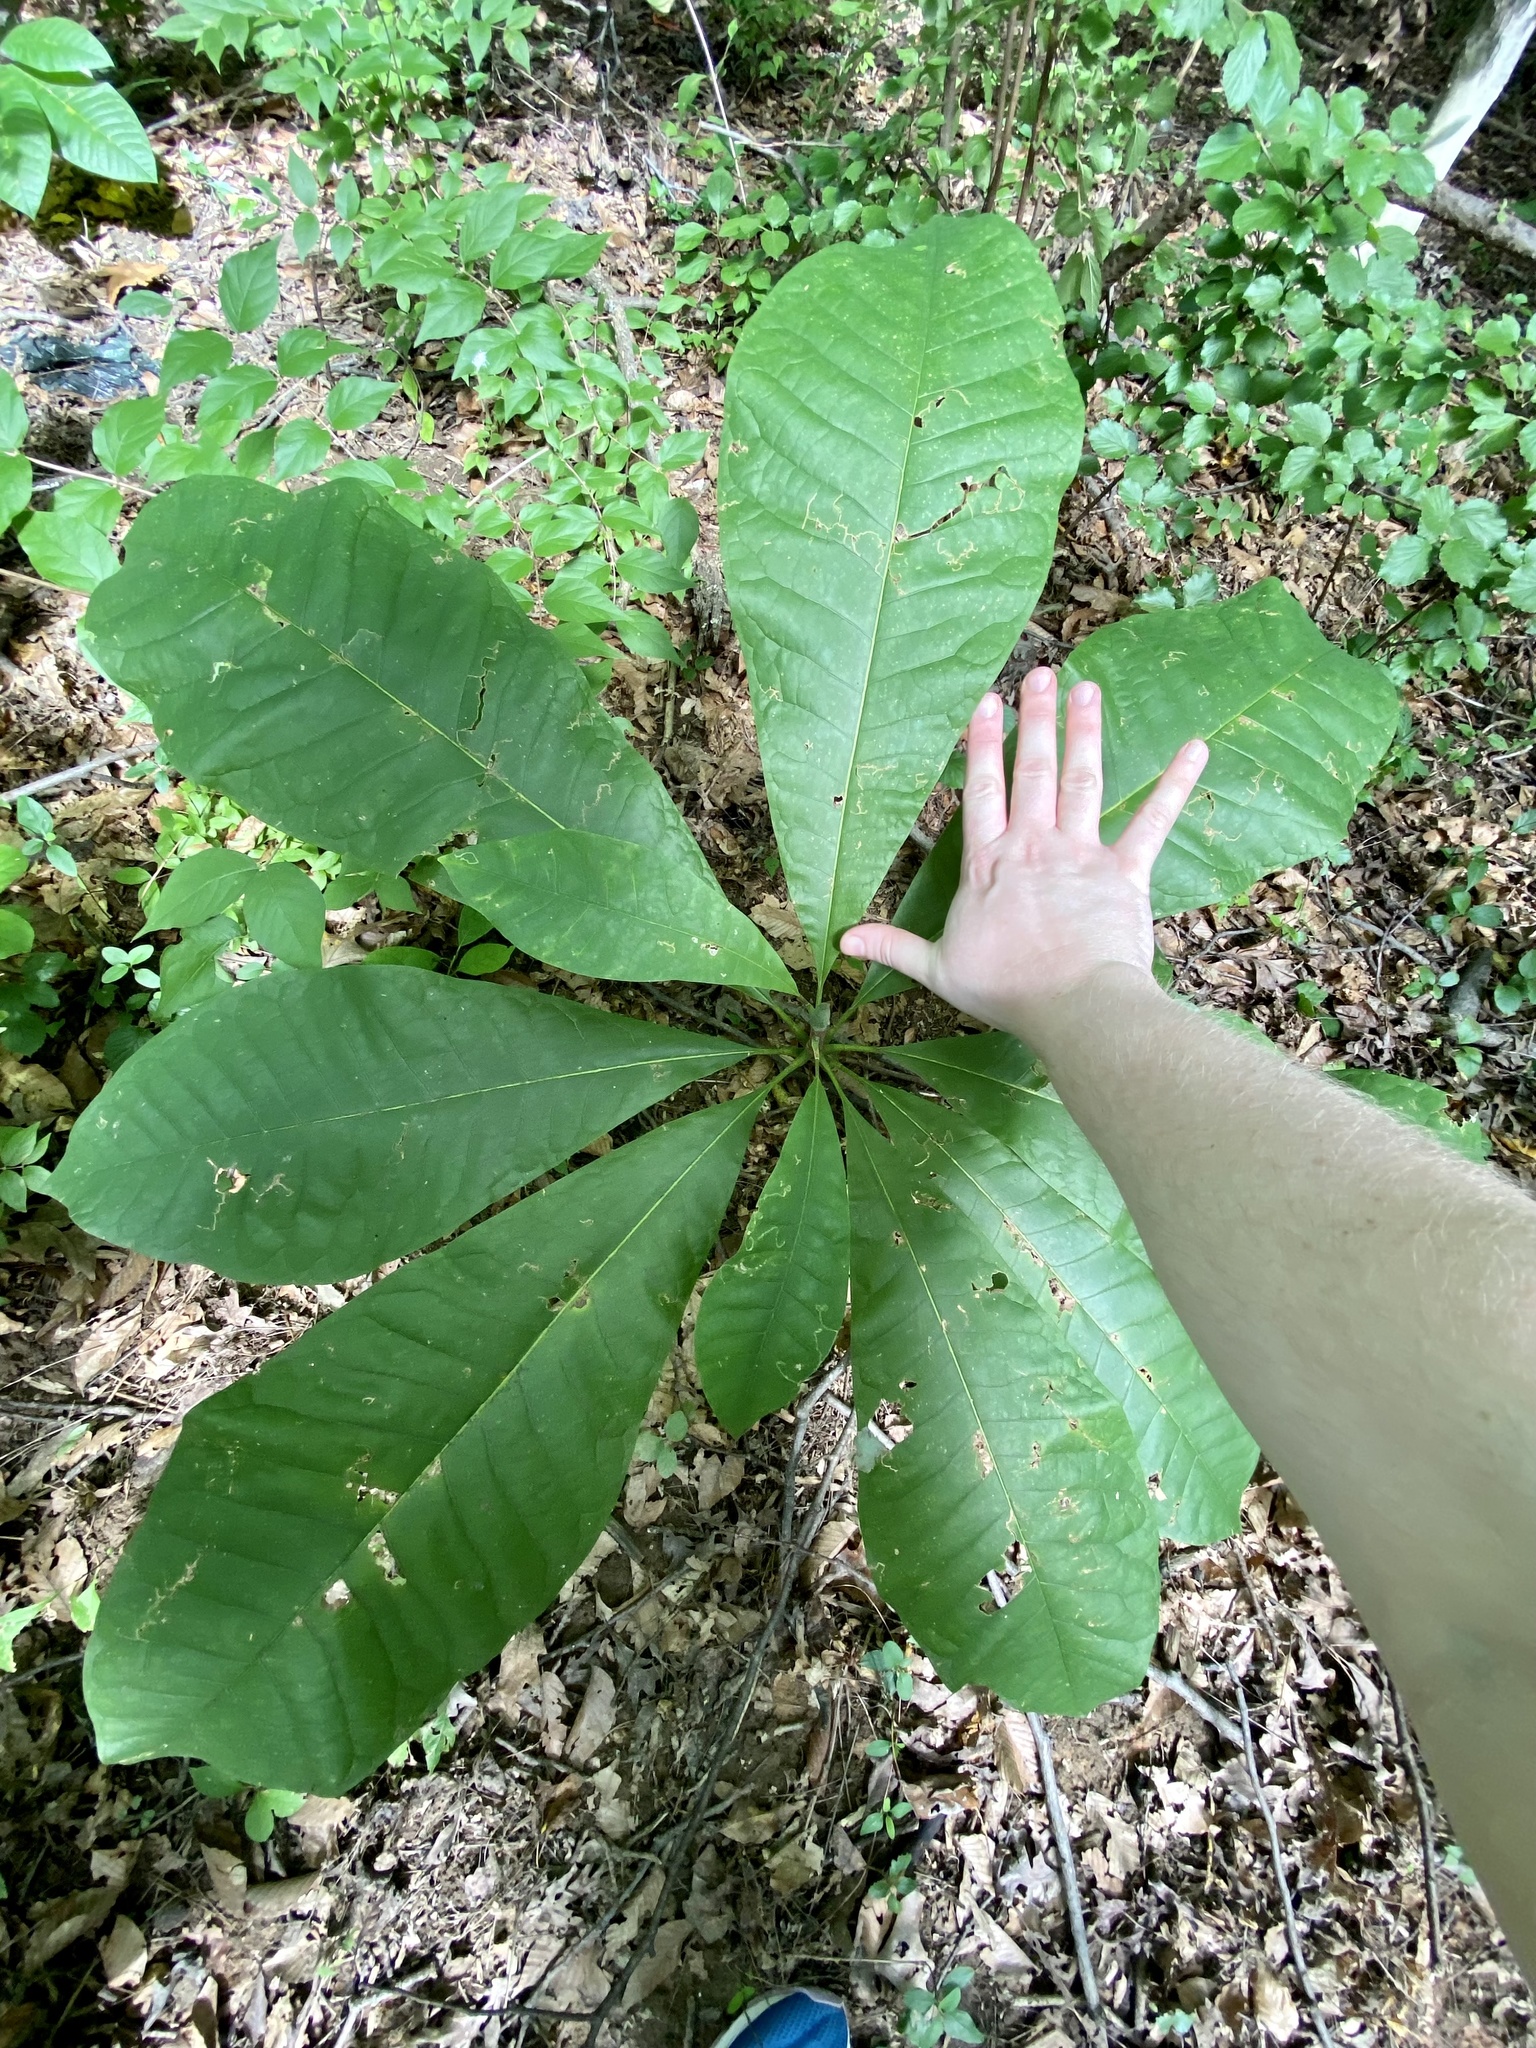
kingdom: Plantae
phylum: Tracheophyta
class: Magnoliopsida
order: Magnoliales
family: Magnoliaceae
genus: Magnolia
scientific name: Magnolia tripetala
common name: Umbrella magnolia
